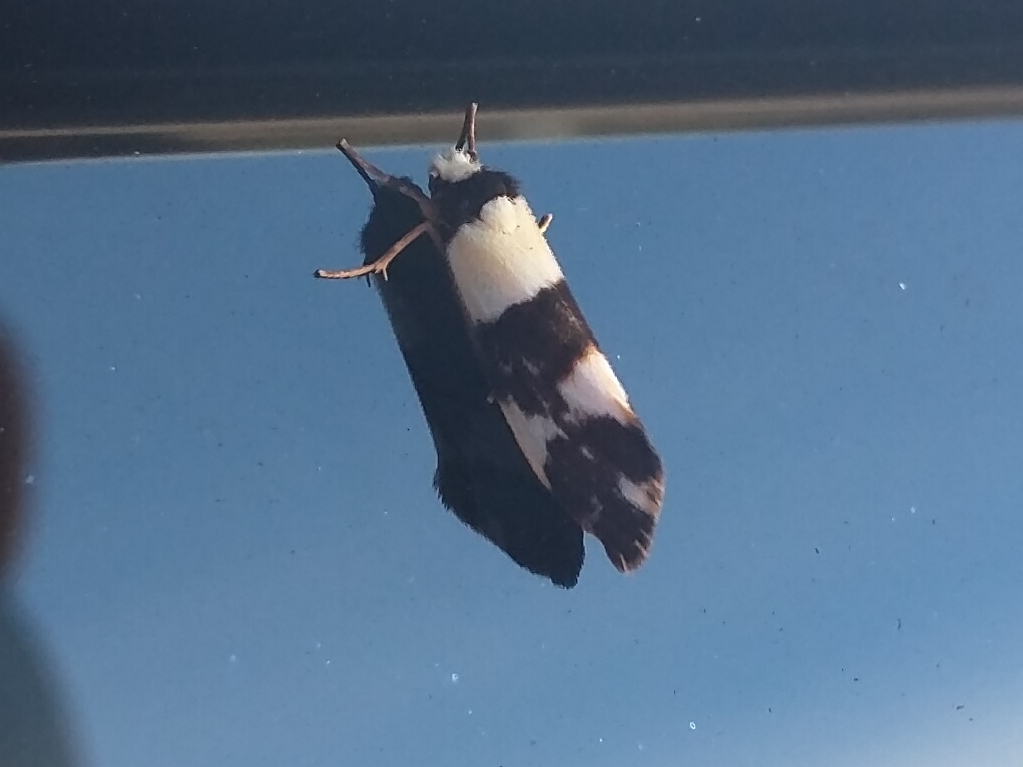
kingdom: Animalia
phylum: Arthropoda
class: Insecta
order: Lepidoptera
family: Erebidae
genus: Philenora
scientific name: Philenora aspectalella
